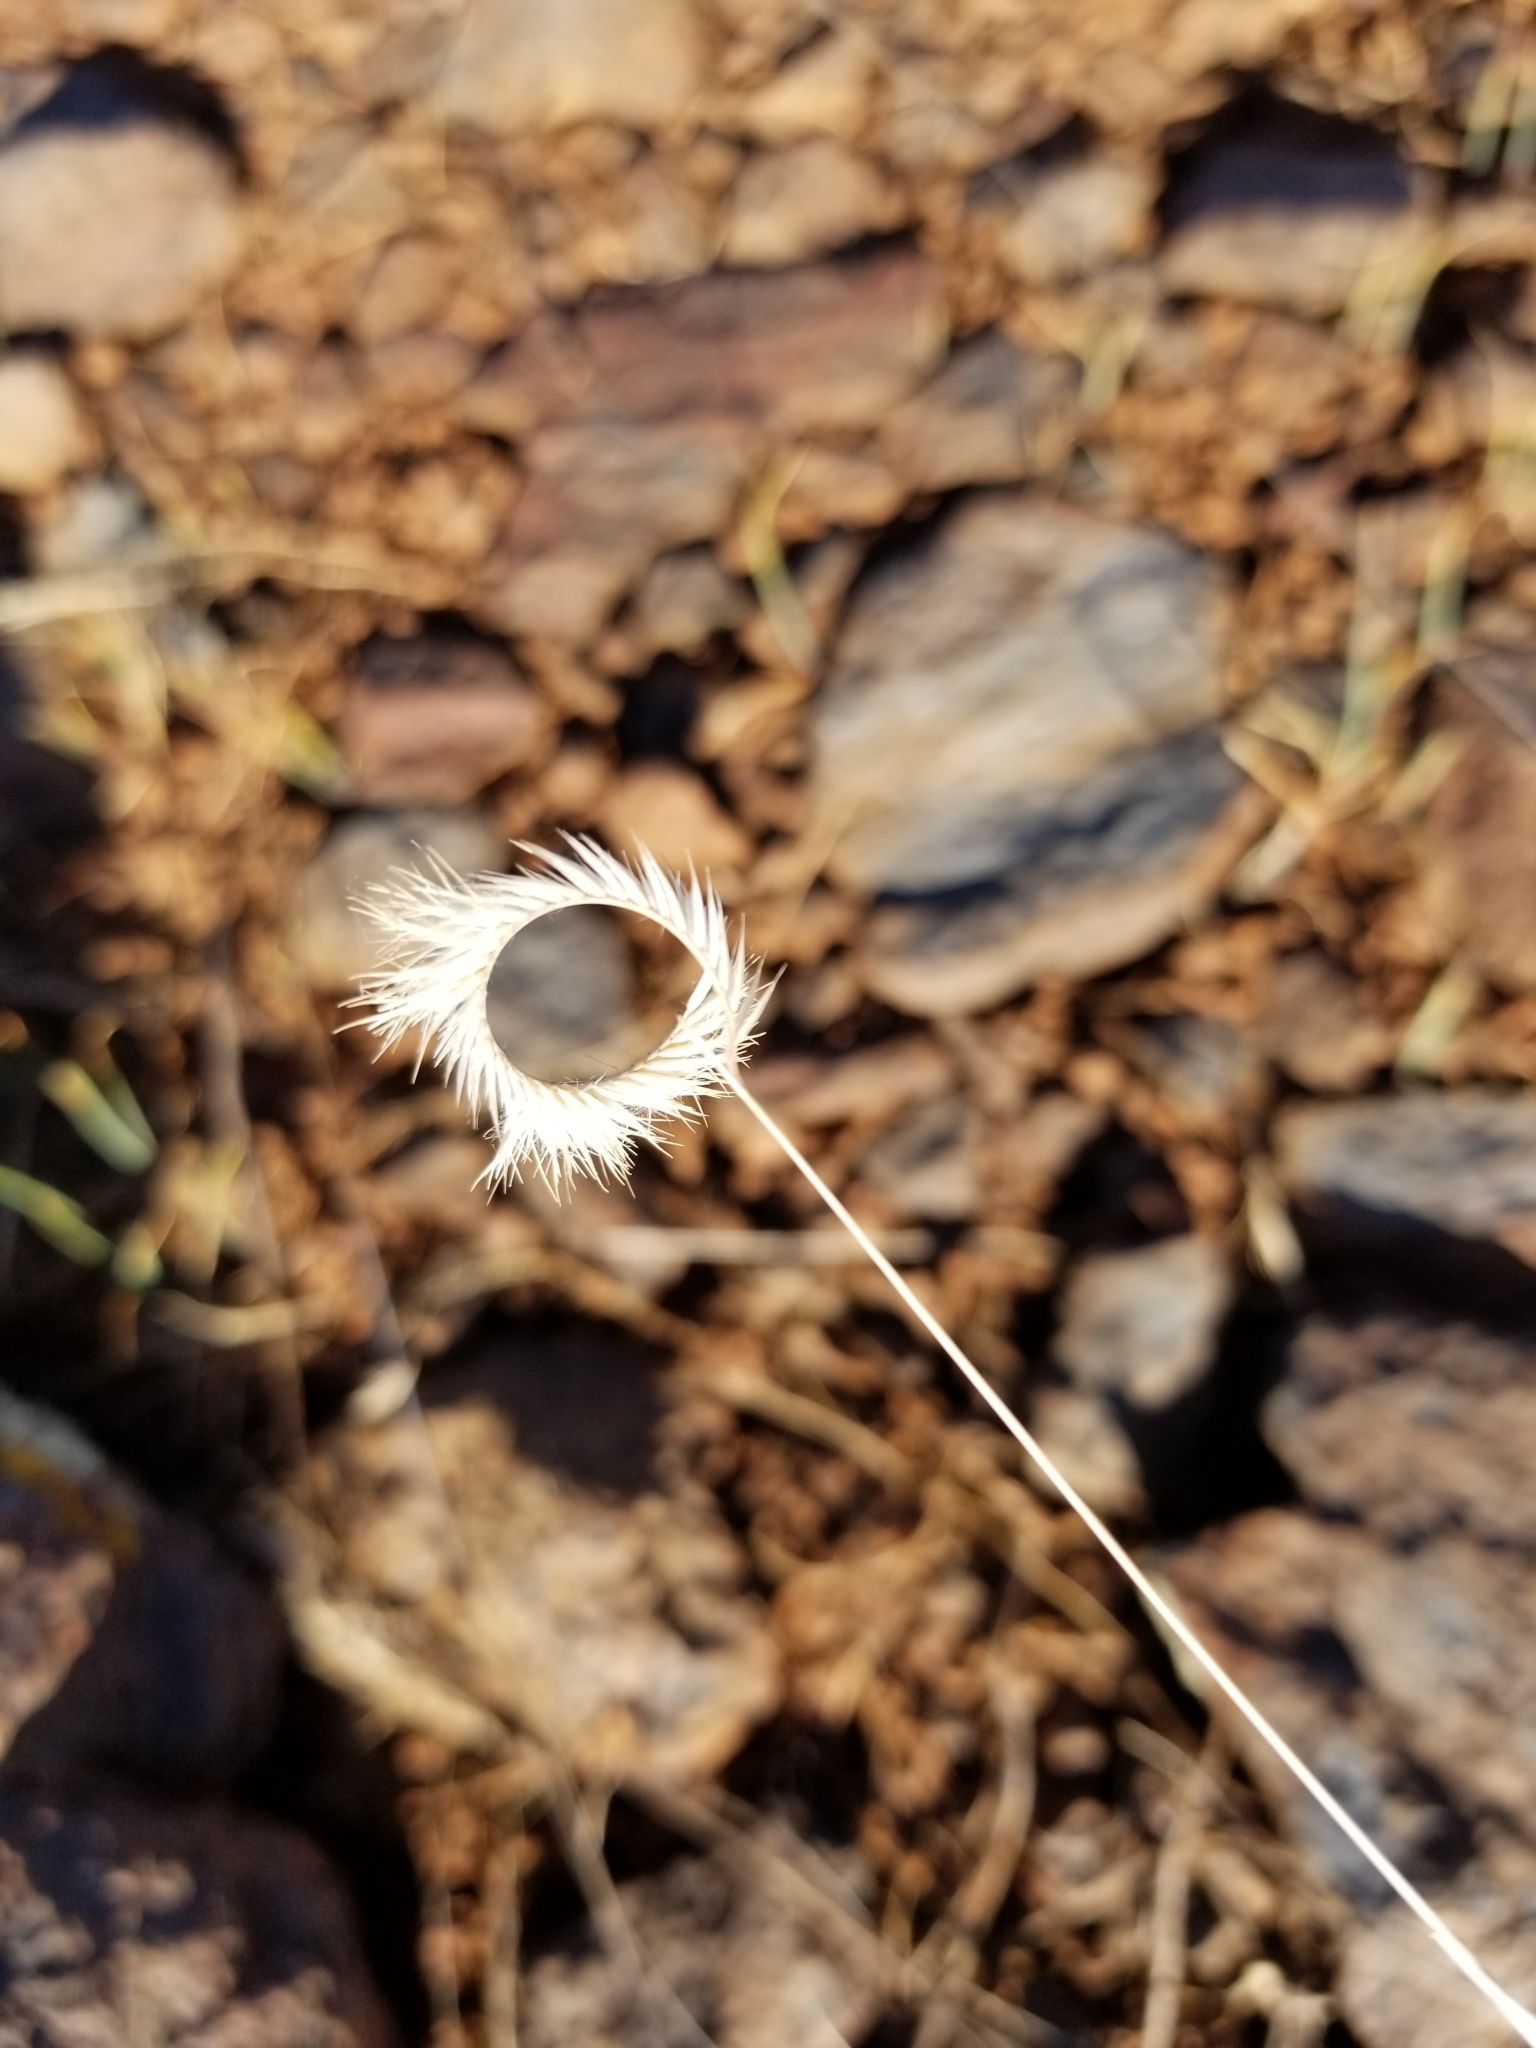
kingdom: Plantae
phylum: Tracheophyta
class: Liliopsida
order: Poales
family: Poaceae
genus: Bouteloua
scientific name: Bouteloua gracilis
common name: Blue grama
